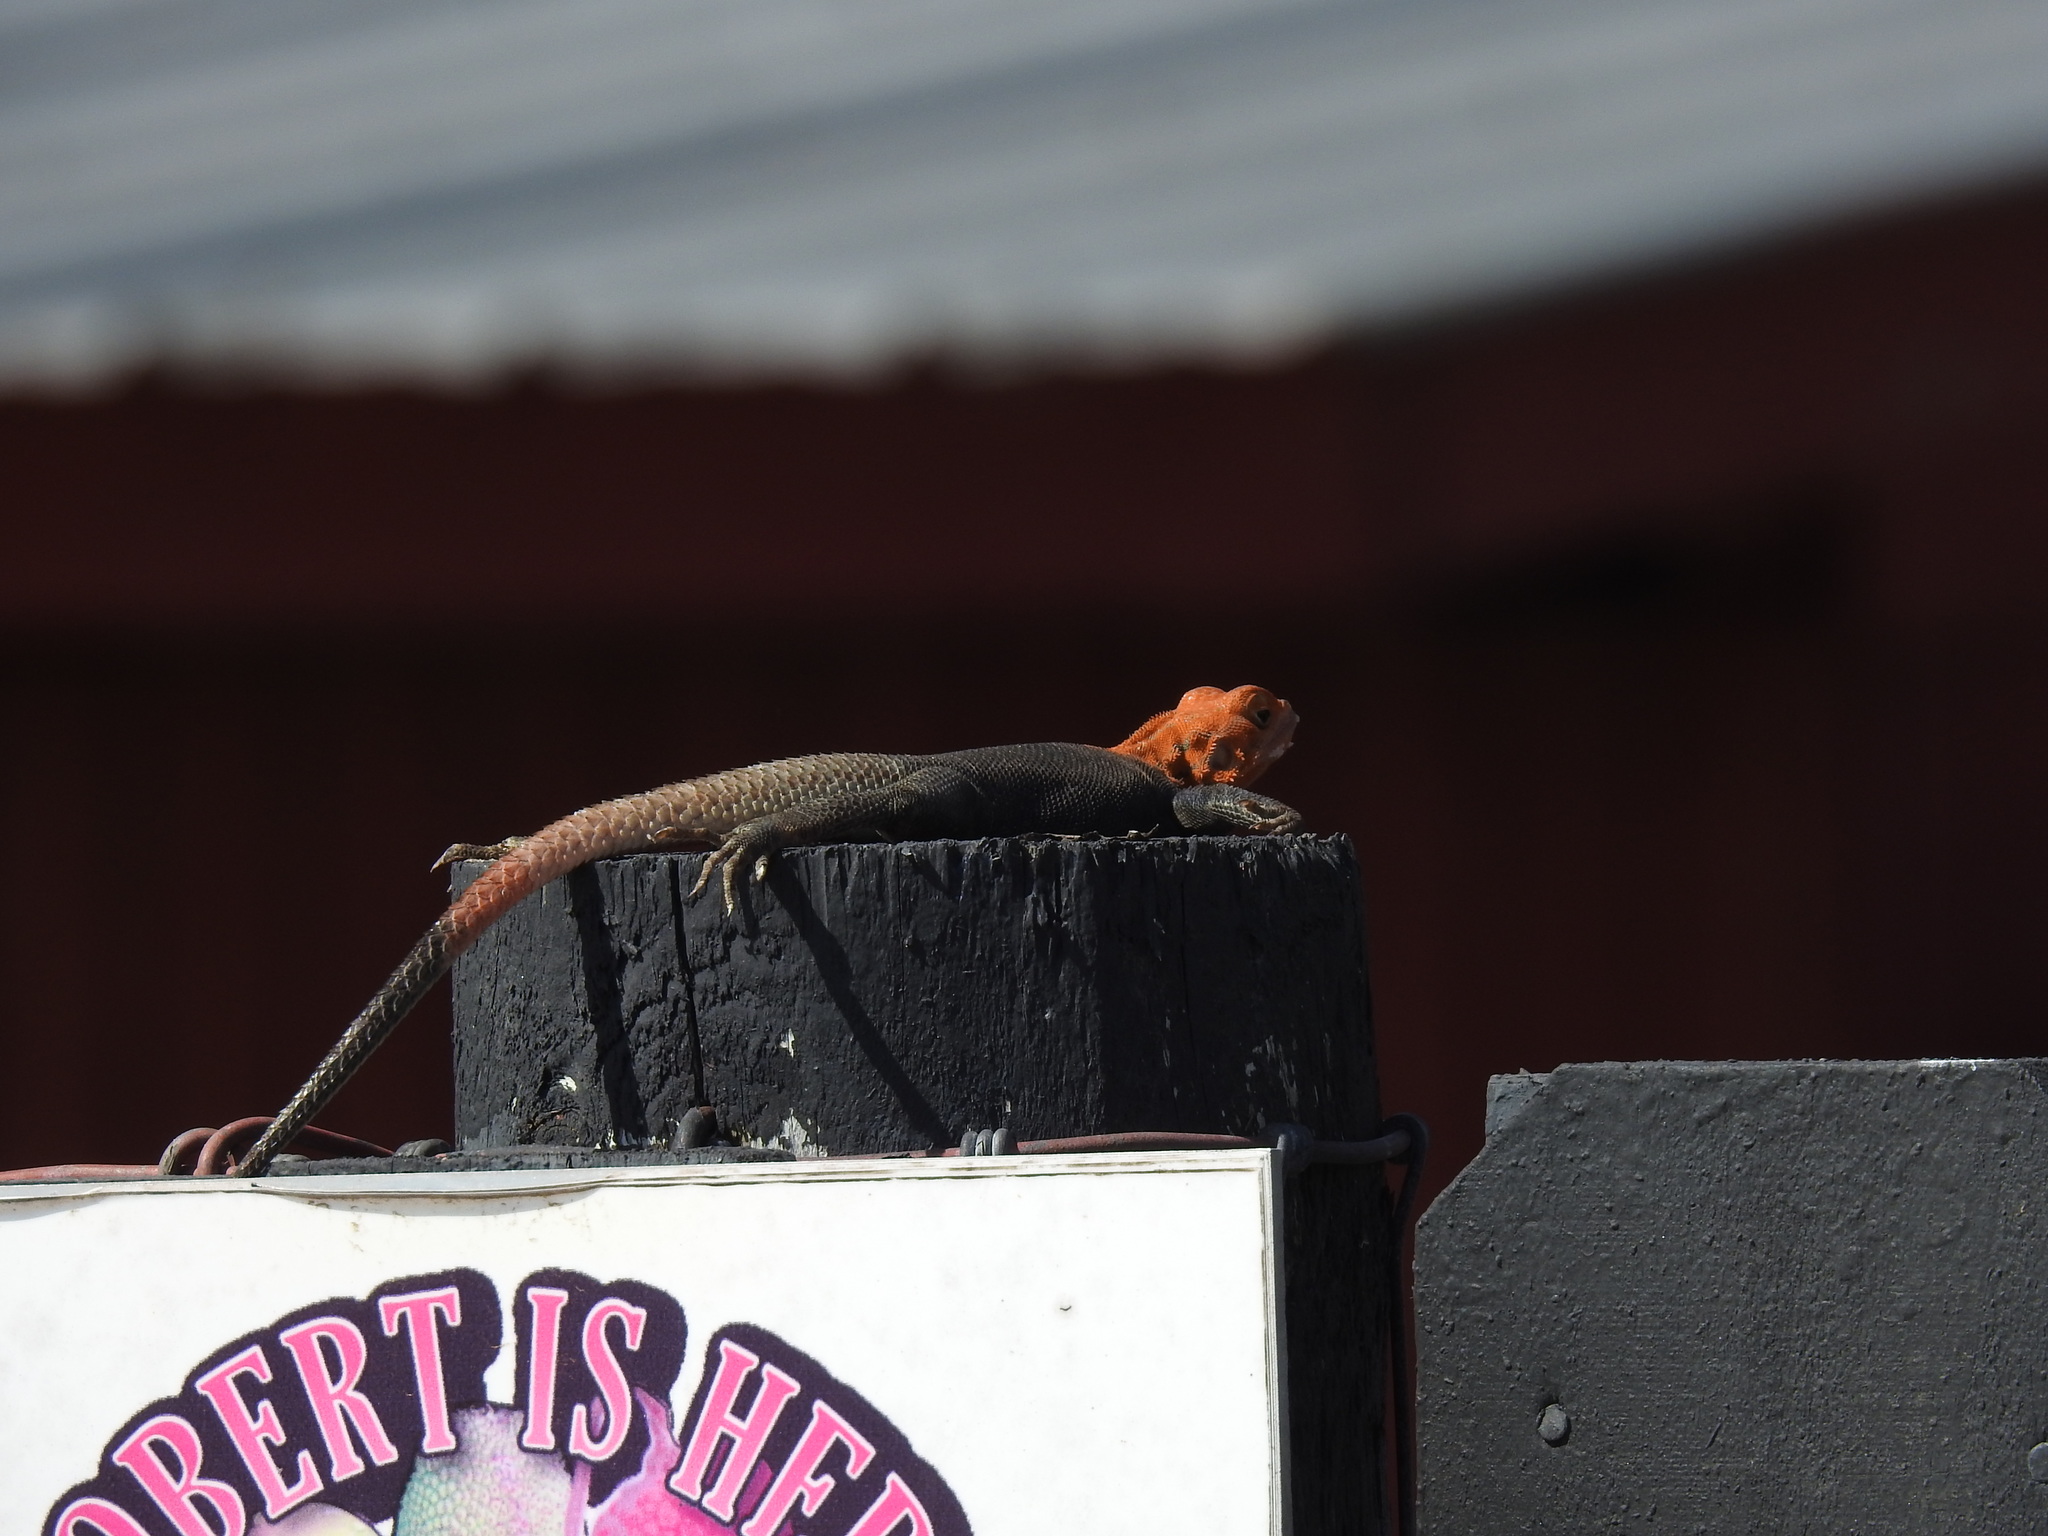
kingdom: Animalia
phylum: Chordata
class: Squamata
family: Agamidae
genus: Agama
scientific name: Agama picticauda
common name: Red-headed agama
